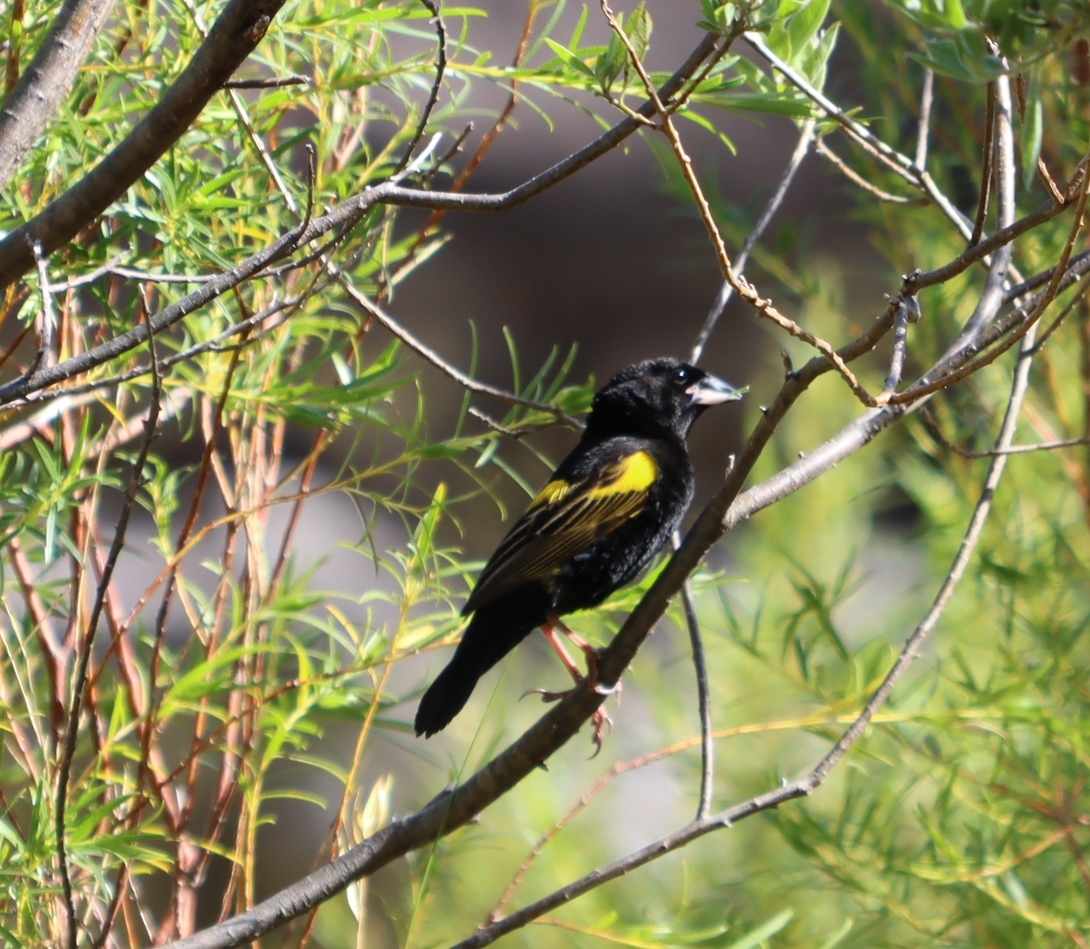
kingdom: Animalia
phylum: Chordata
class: Aves
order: Passeriformes
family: Ploceidae
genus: Euplectes
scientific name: Euplectes capensis
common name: Yellow bishop
